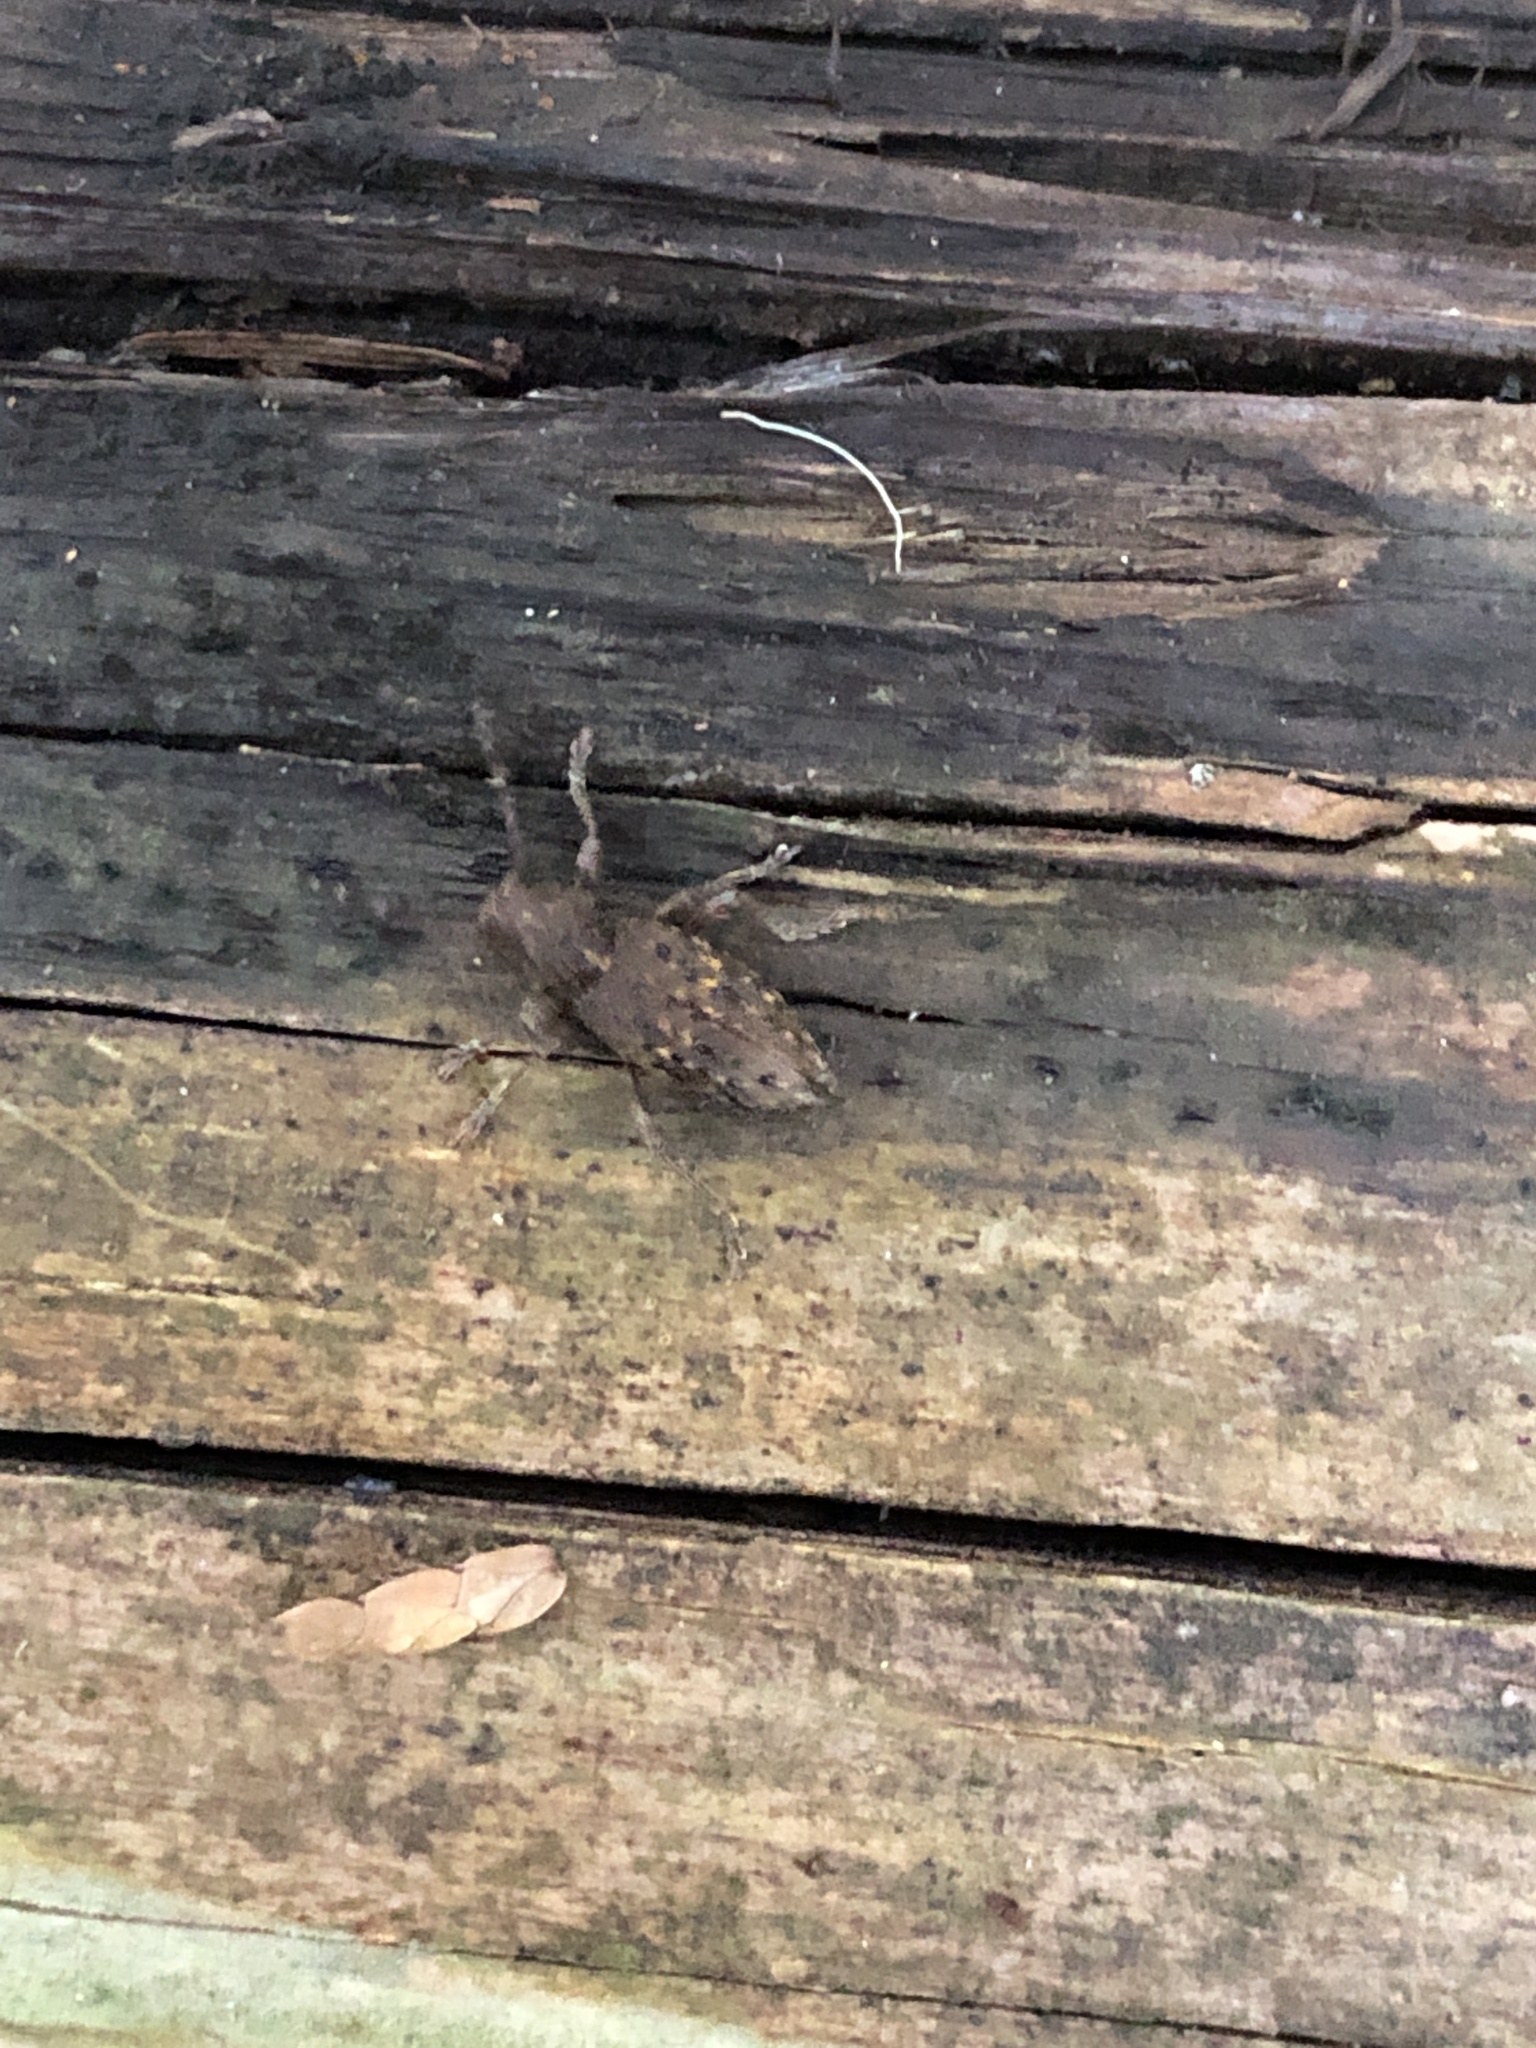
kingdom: Animalia
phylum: Arthropoda
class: Insecta
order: Coleoptera
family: Cerambycidae
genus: Plectrura
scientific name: Plectrura spinicauda
